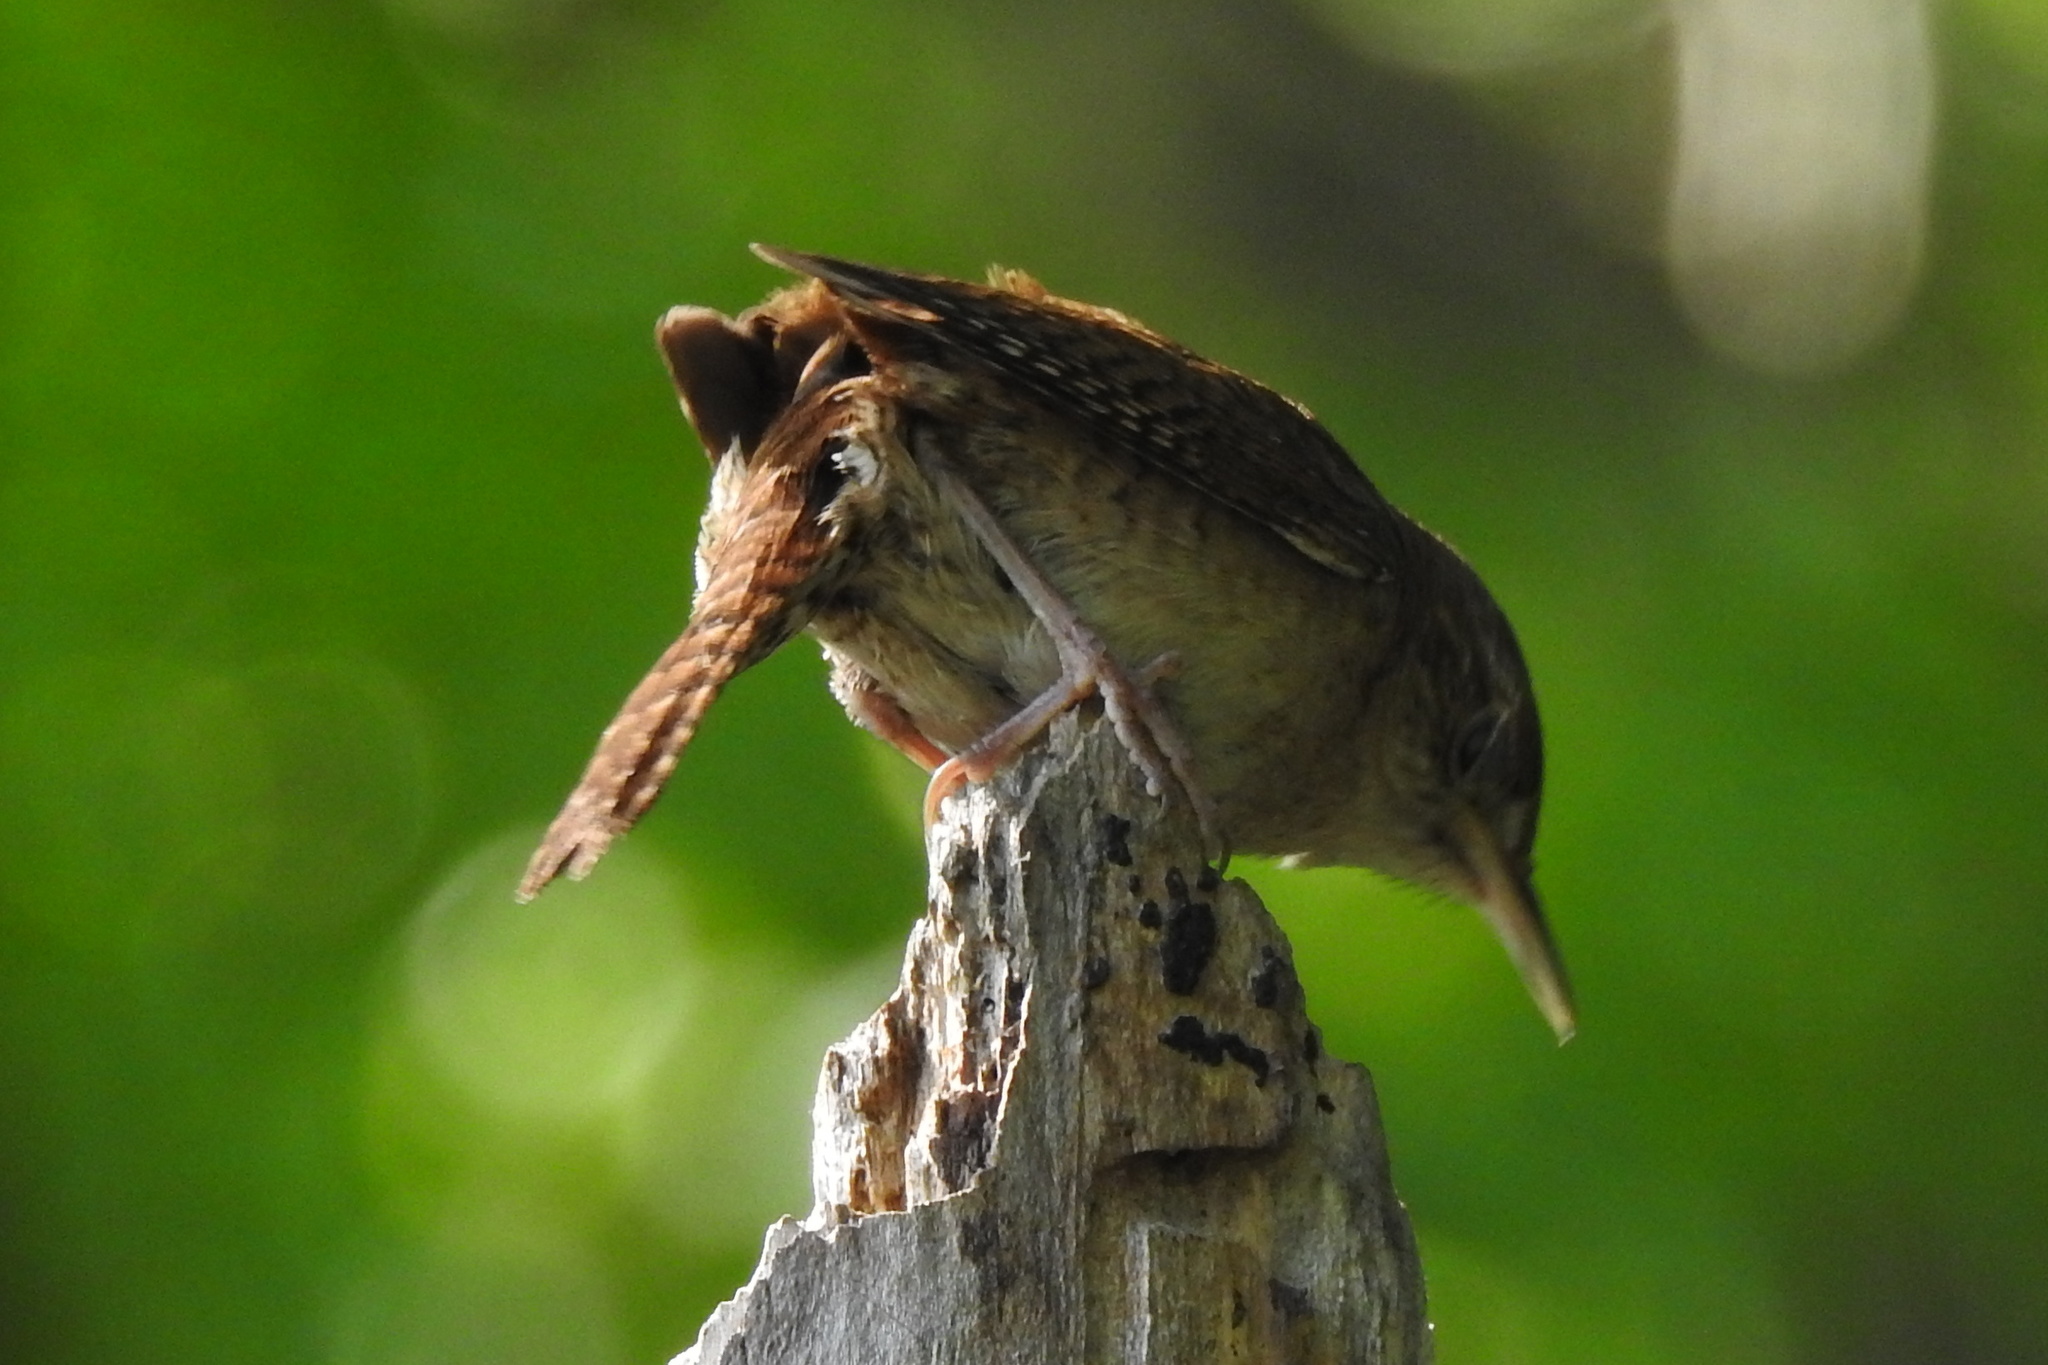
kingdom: Animalia
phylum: Chordata
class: Aves
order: Passeriformes
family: Troglodytidae
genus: Troglodytes
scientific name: Troglodytes aedon
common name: House wren
